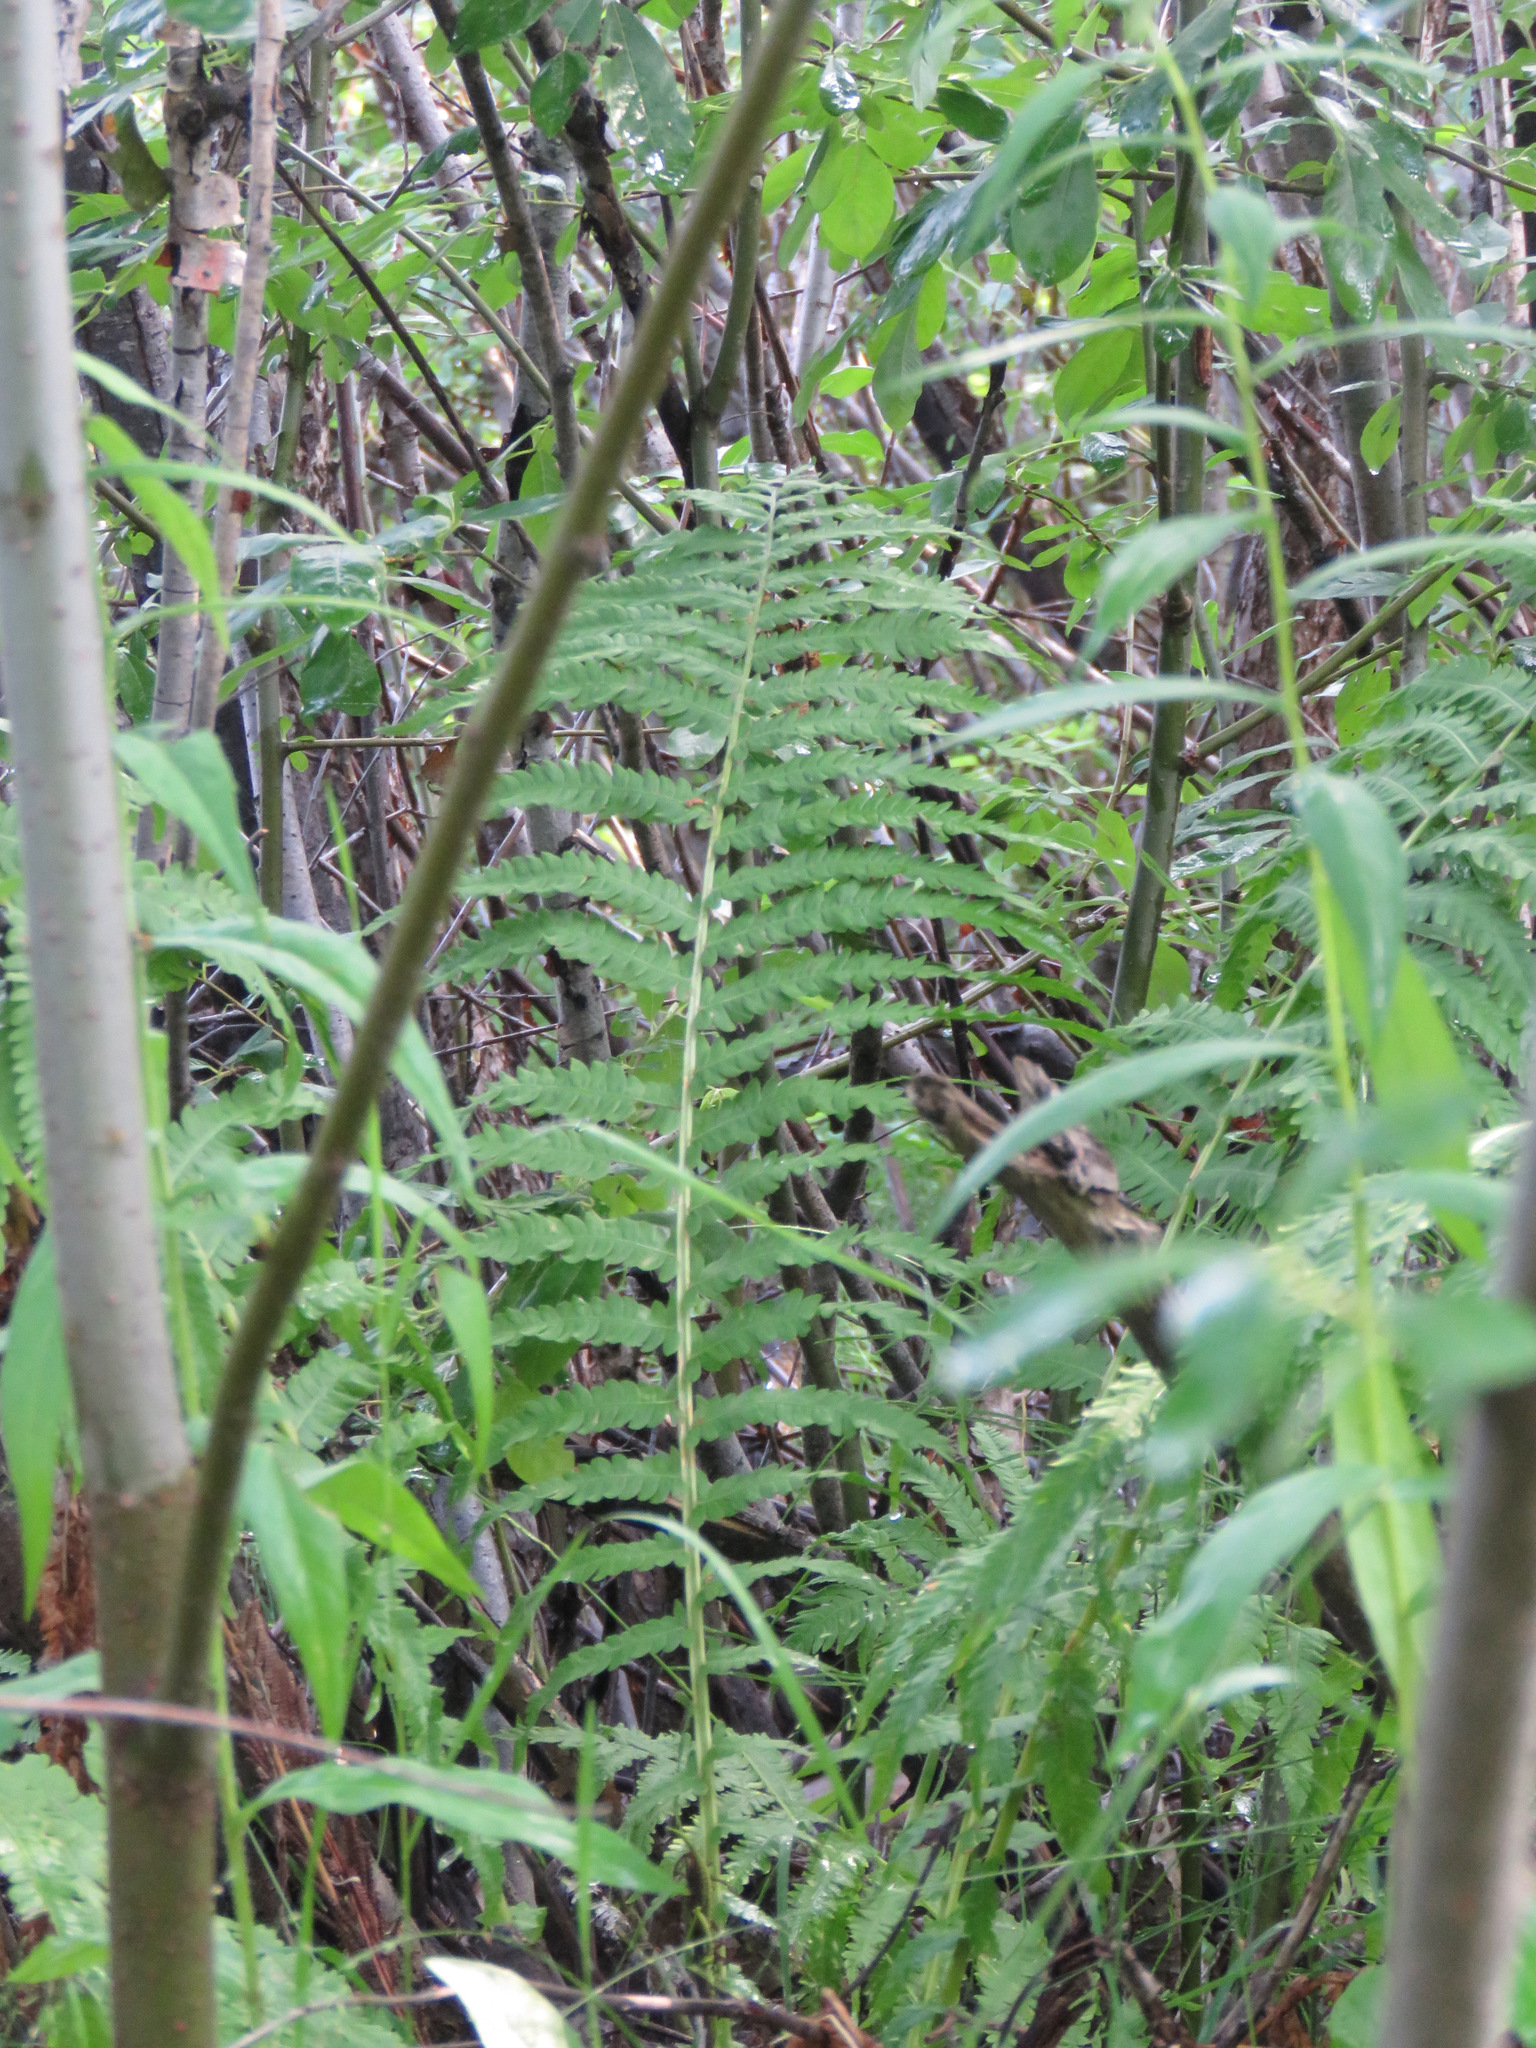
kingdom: Plantae
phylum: Tracheophyta
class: Polypodiopsida
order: Polypodiales
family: Onocleaceae
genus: Matteuccia
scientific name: Matteuccia struthiopteris
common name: Ostrich fern
